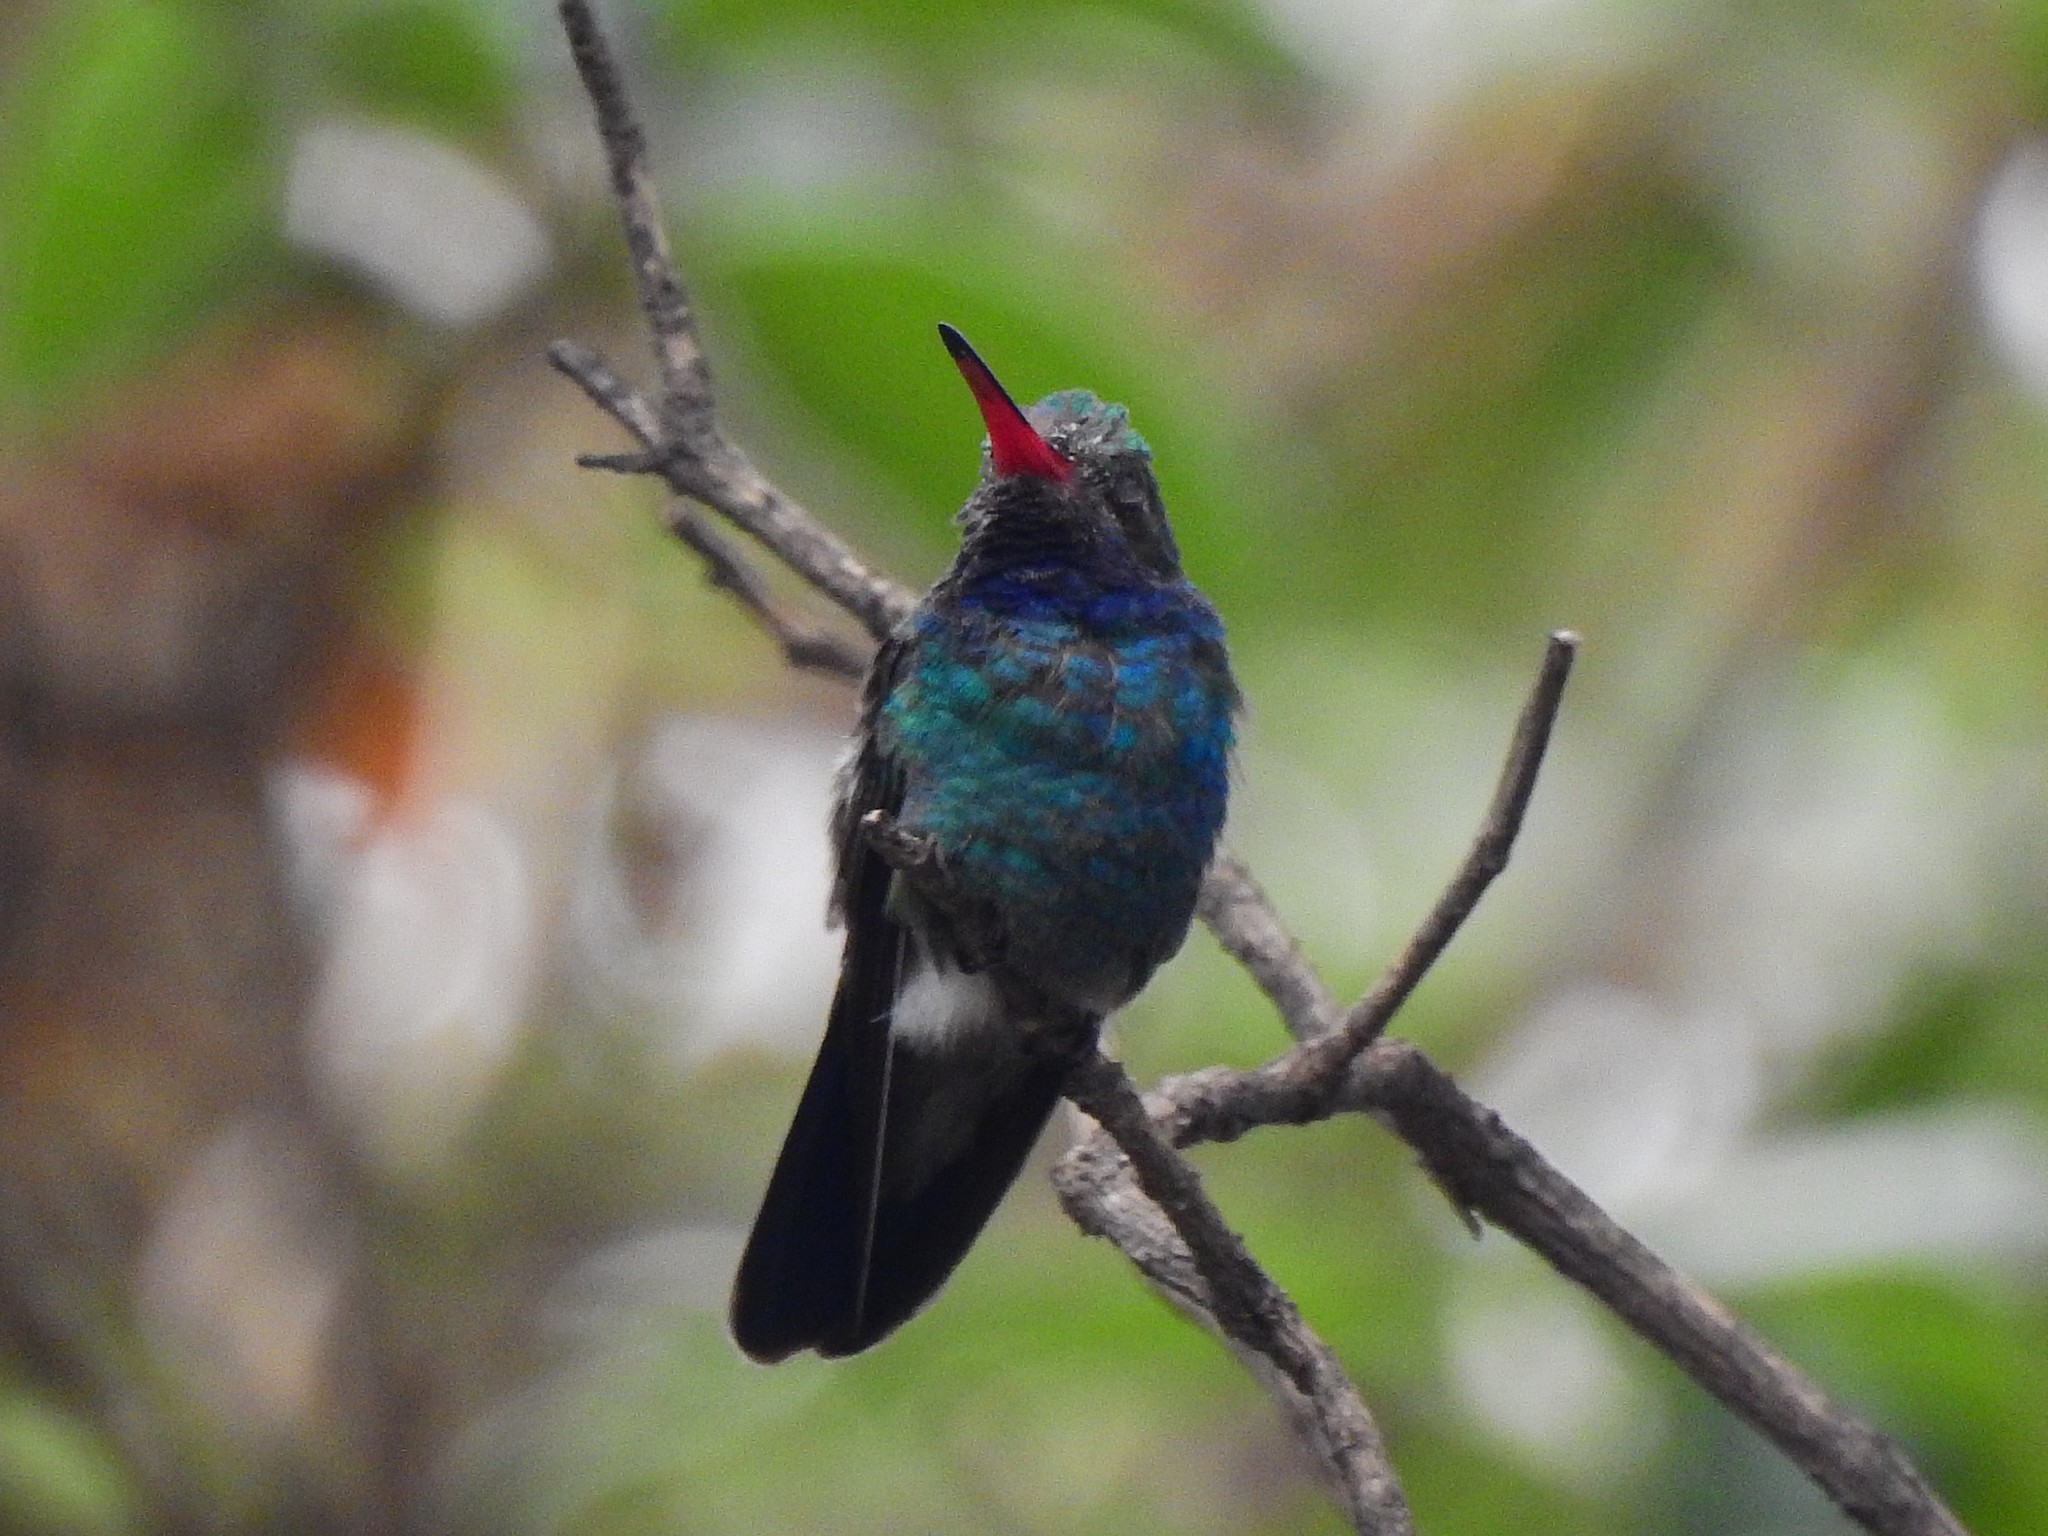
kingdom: Animalia
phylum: Chordata
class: Aves
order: Apodiformes
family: Trochilidae
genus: Cynanthus
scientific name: Cynanthus latirostris
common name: Broad-billed hummingbird
